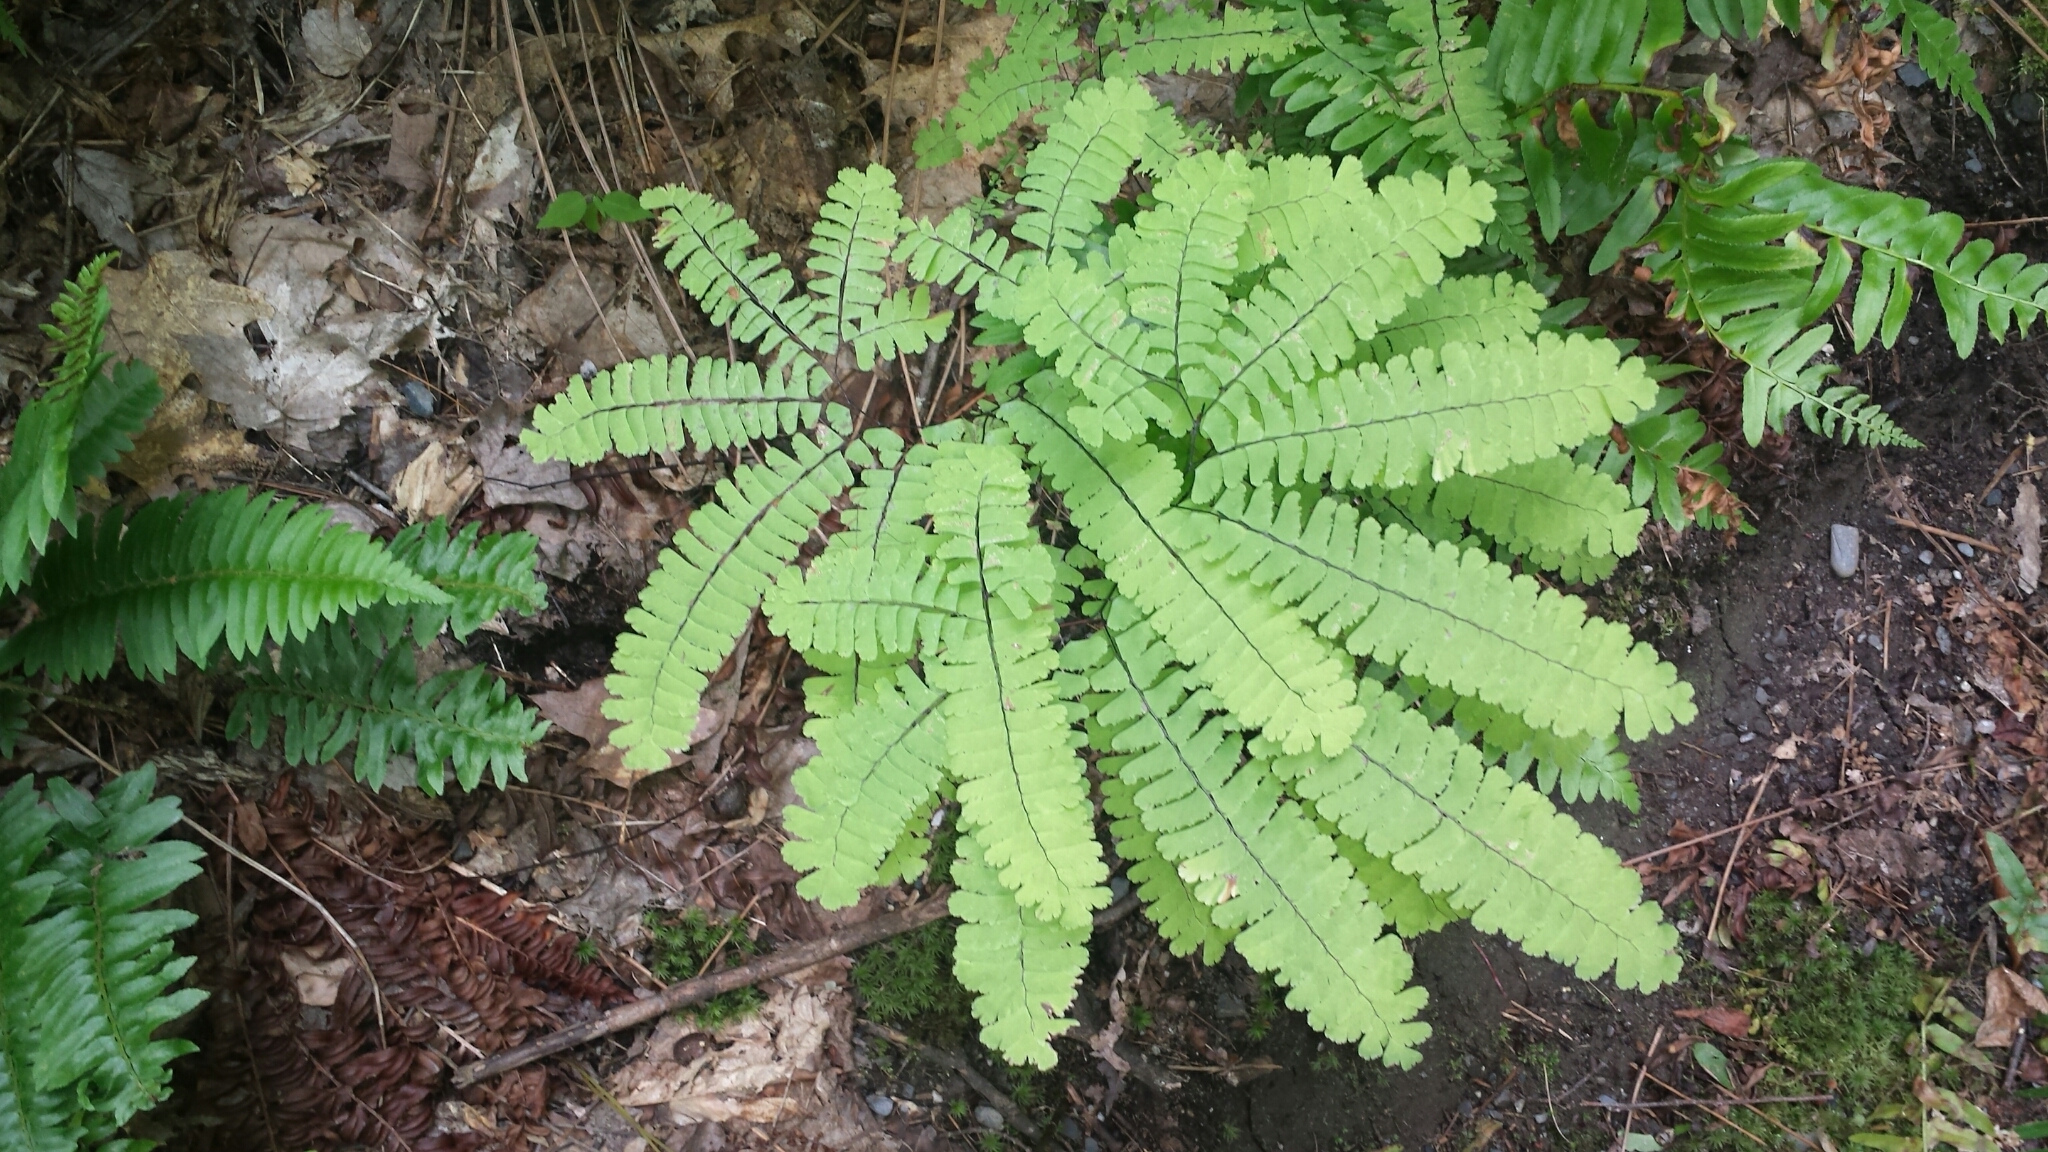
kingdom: Plantae
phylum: Tracheophyta
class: Polypodiopsida
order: Polypodiales
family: Pteridaceae
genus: Adiantum
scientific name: Adiantum pedatum
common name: Five-finger fern
